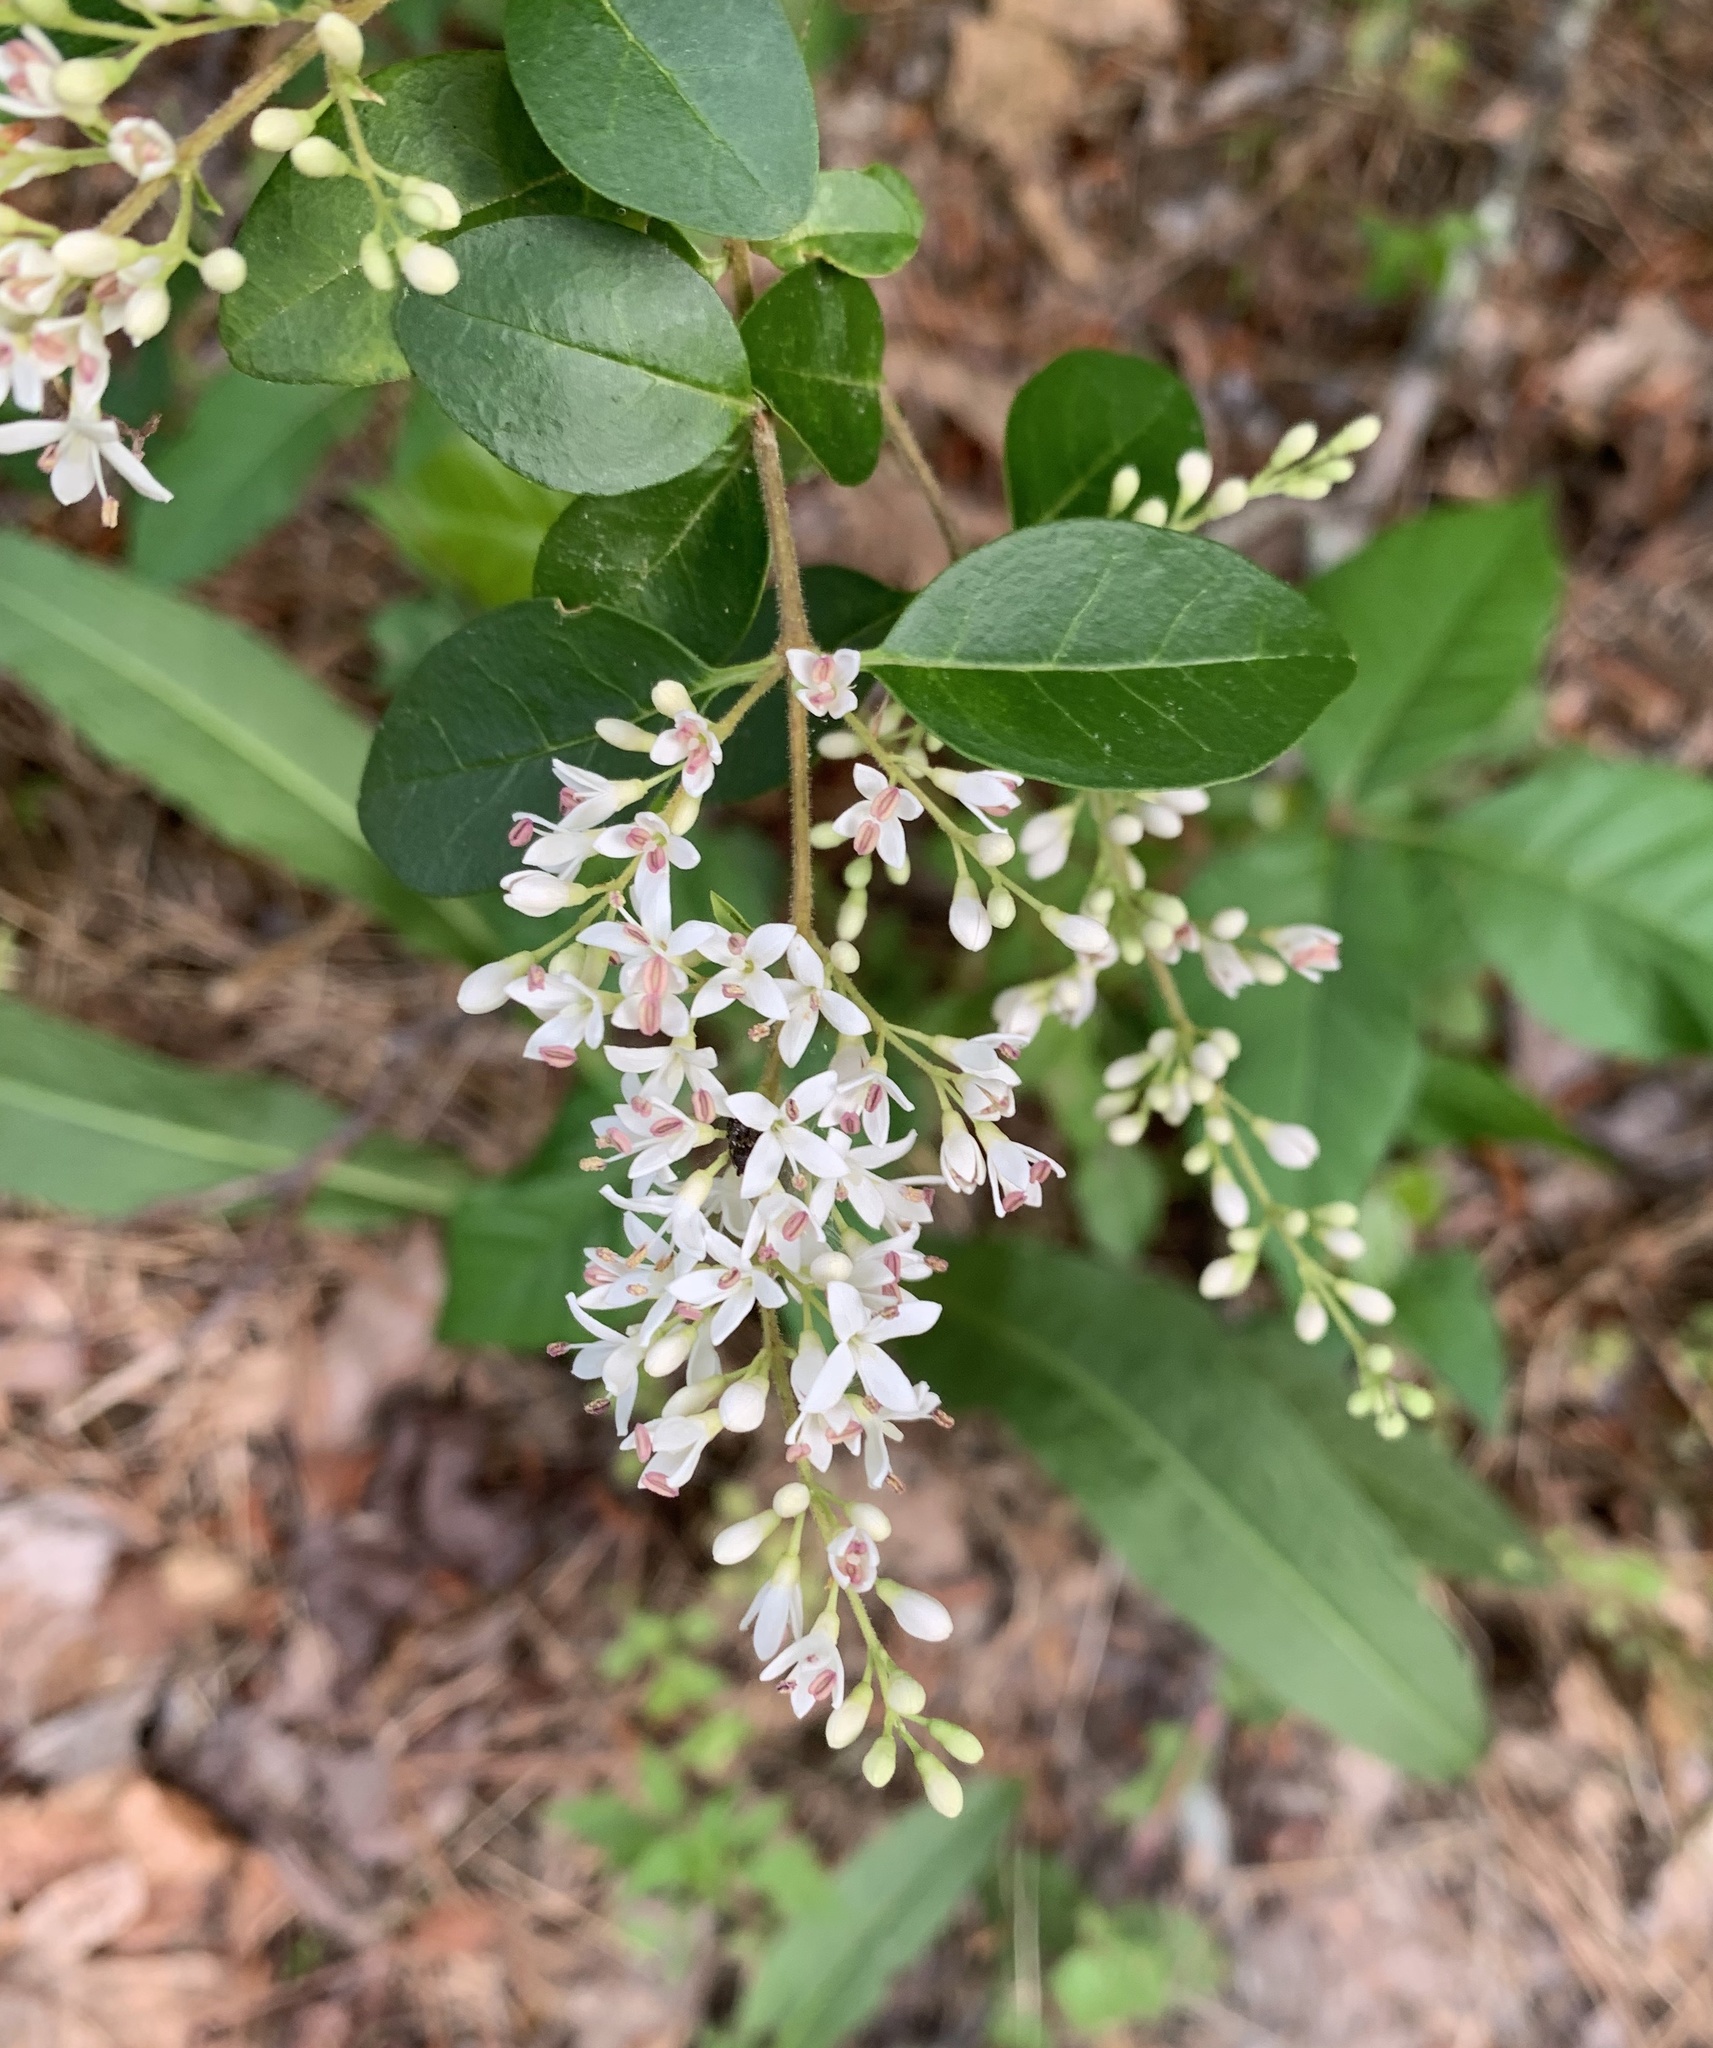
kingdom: Plantae
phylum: Tracheophyta
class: Magnoliopsida
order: Lamiales
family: Oleaceae
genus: Ligustrum
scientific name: Ligustrum sinense
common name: Chinese privet
